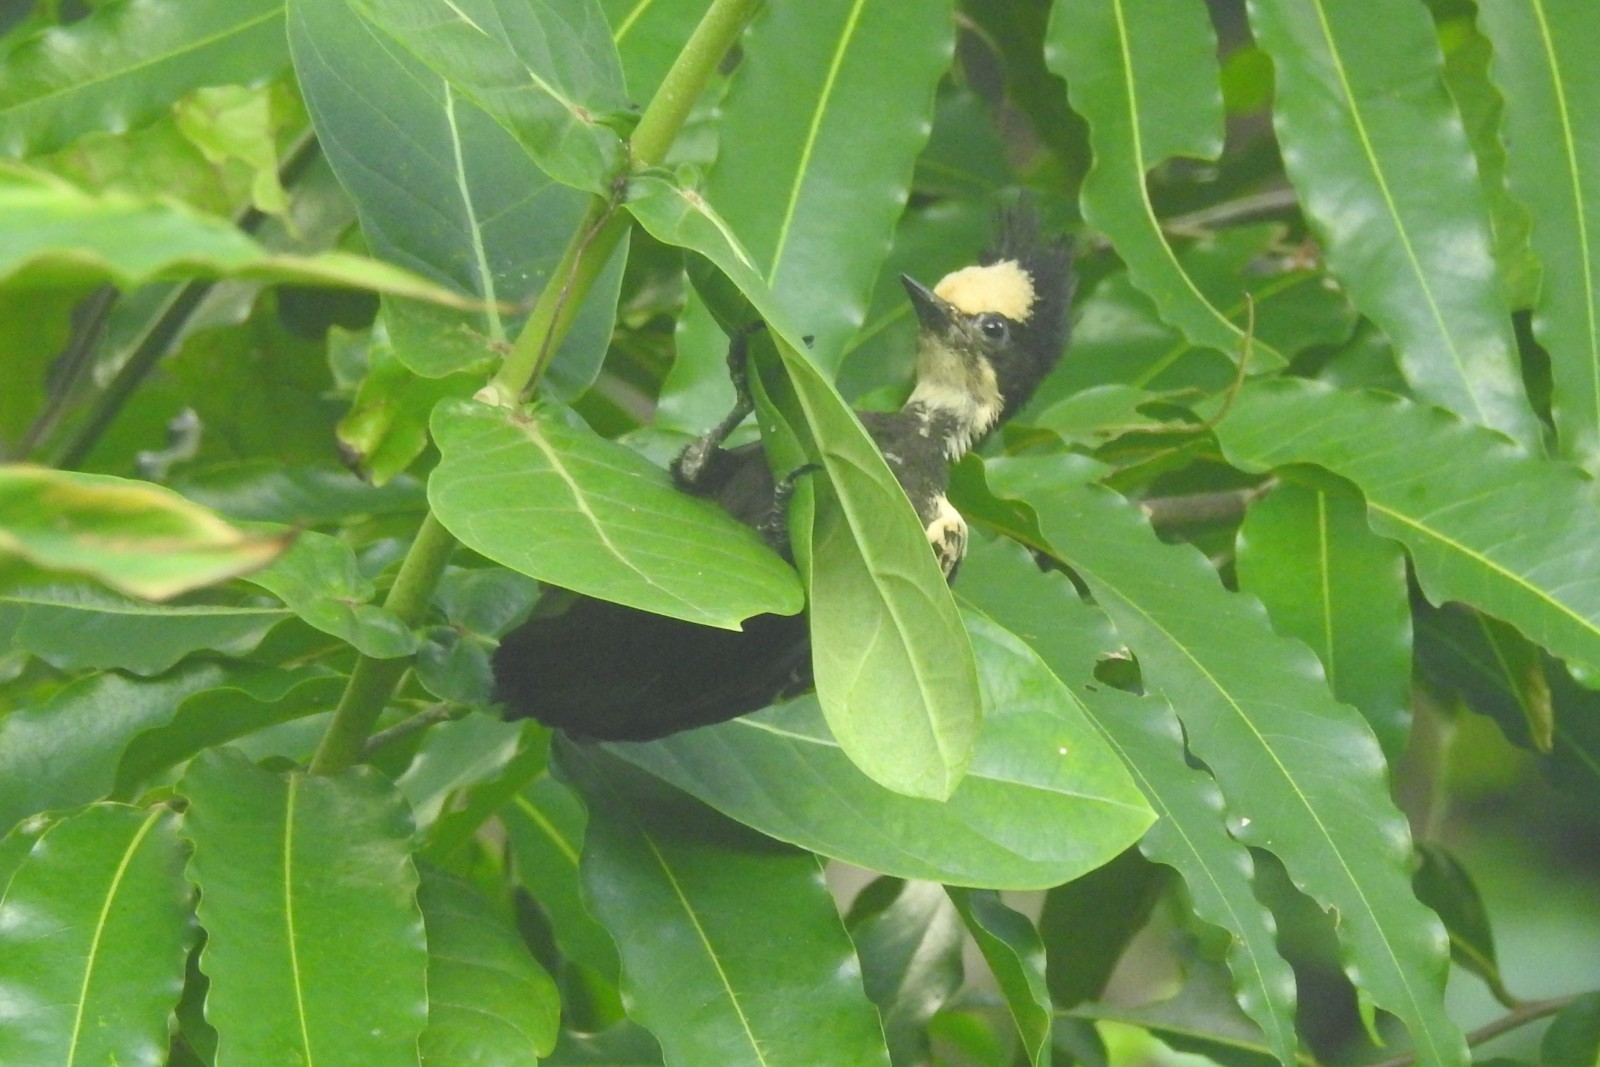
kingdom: Animalia
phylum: Chordata
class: Aves
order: Piciformes
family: Picidae
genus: Hemicircus
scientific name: Hemicircus canente
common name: Heart-spotted woodpecker
